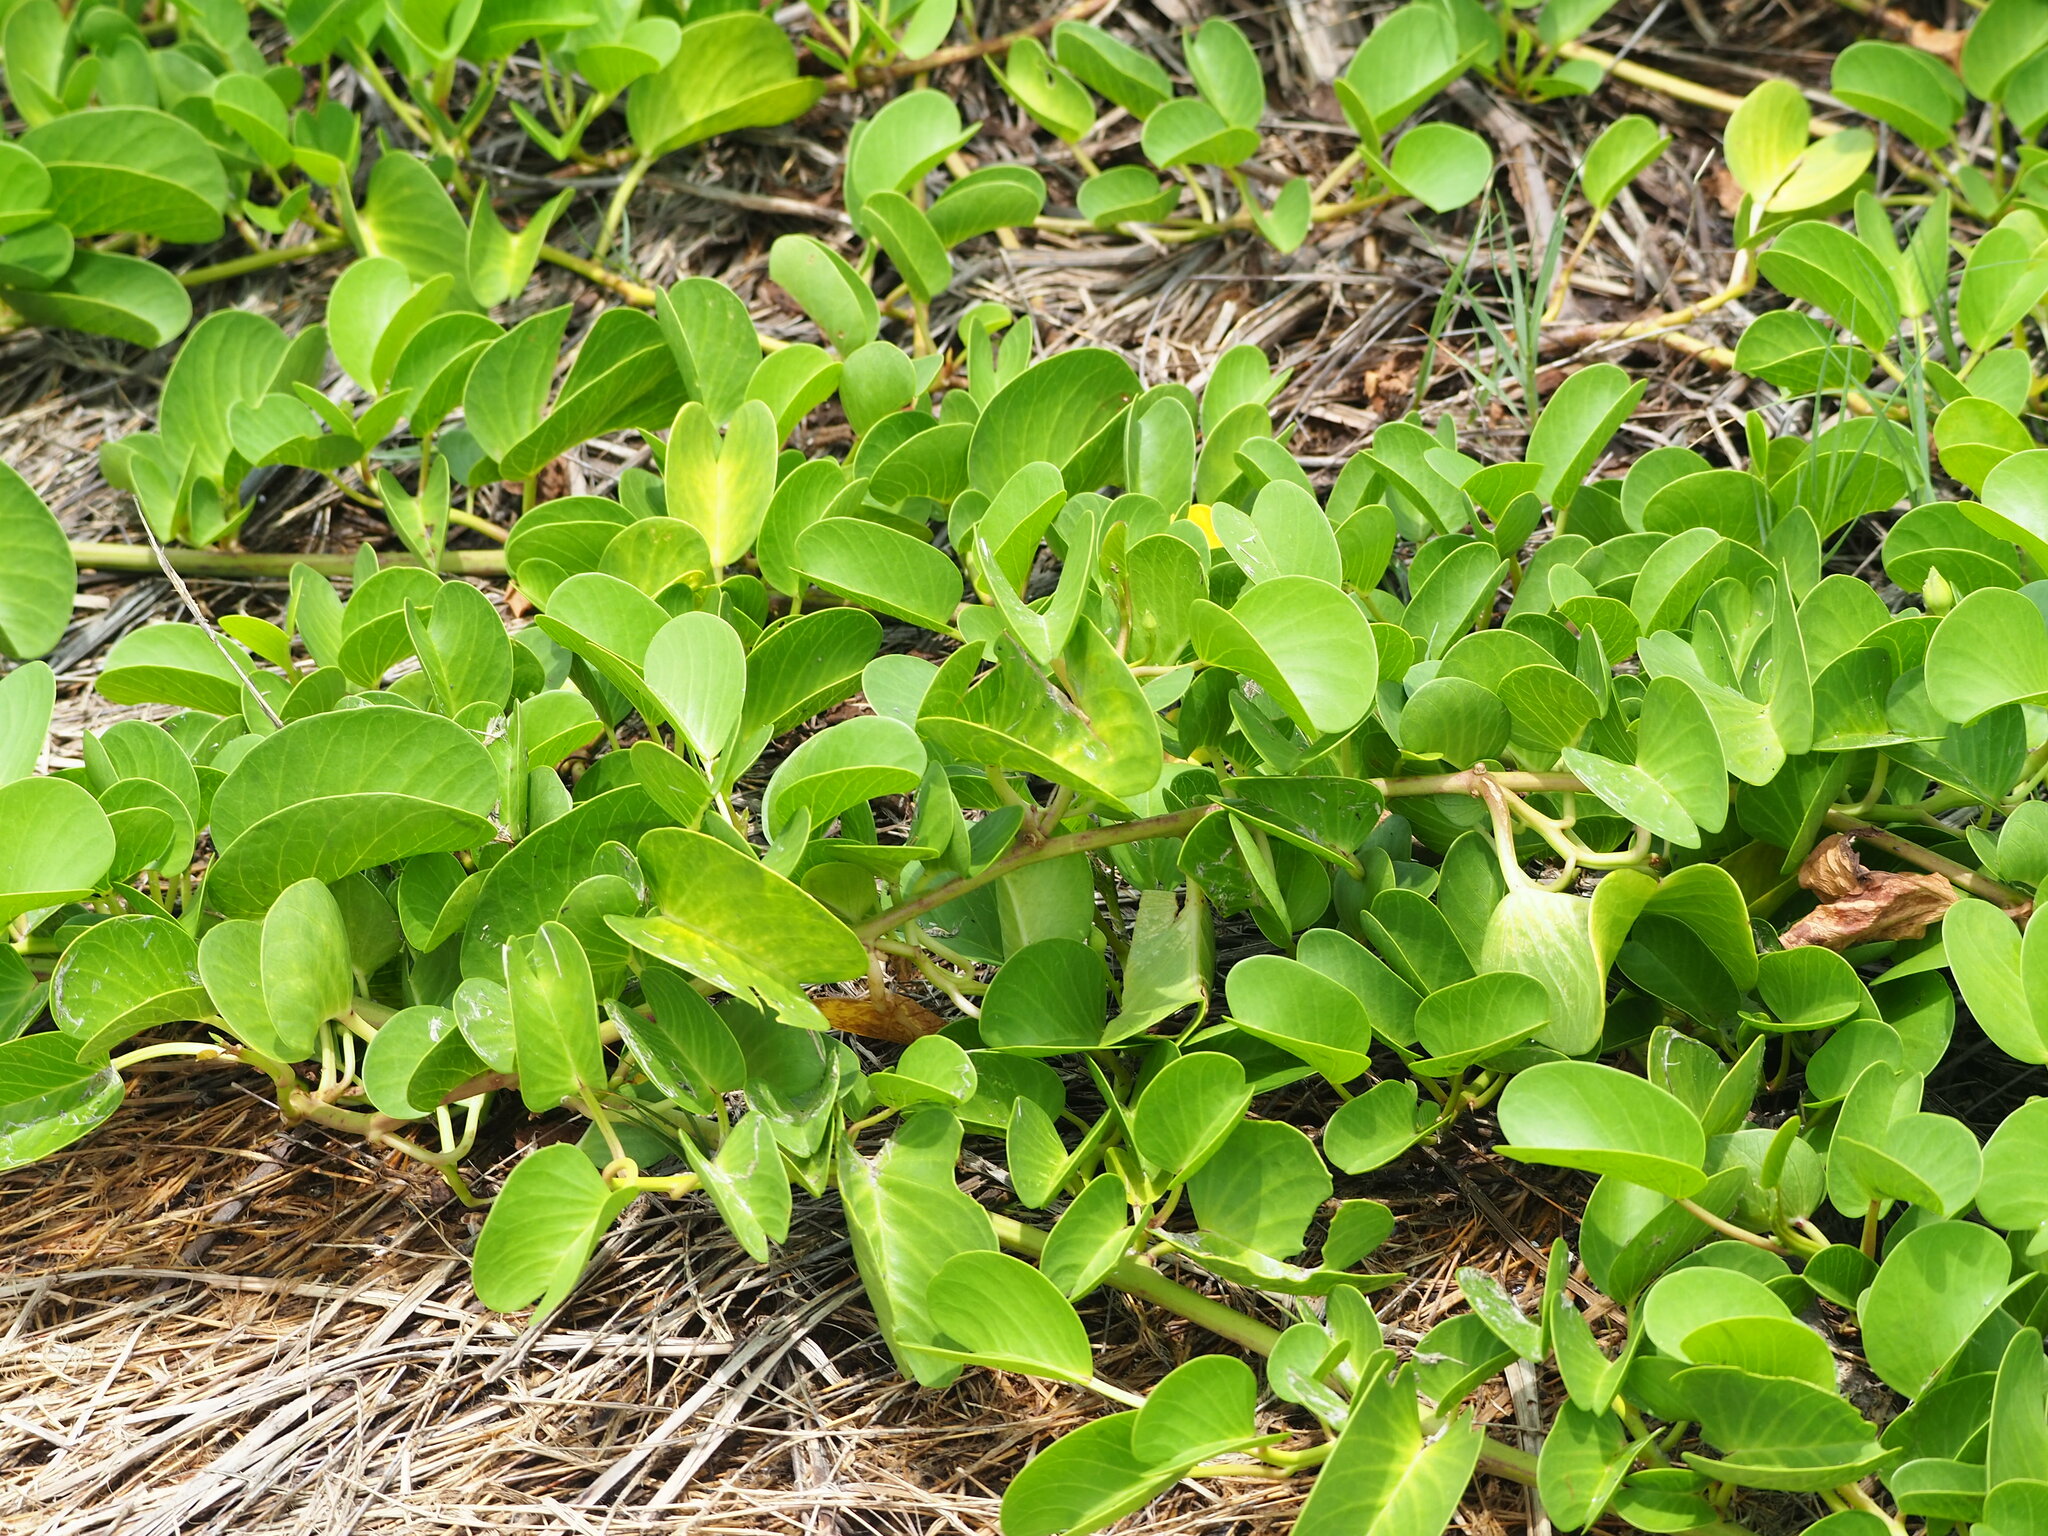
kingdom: Plantae
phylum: Tracheophyta
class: Magnoliopsida
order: Solanales
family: Convolvulaceae
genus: Ipomoea
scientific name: Ipomoea pes-caprae
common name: Beach morning glory
